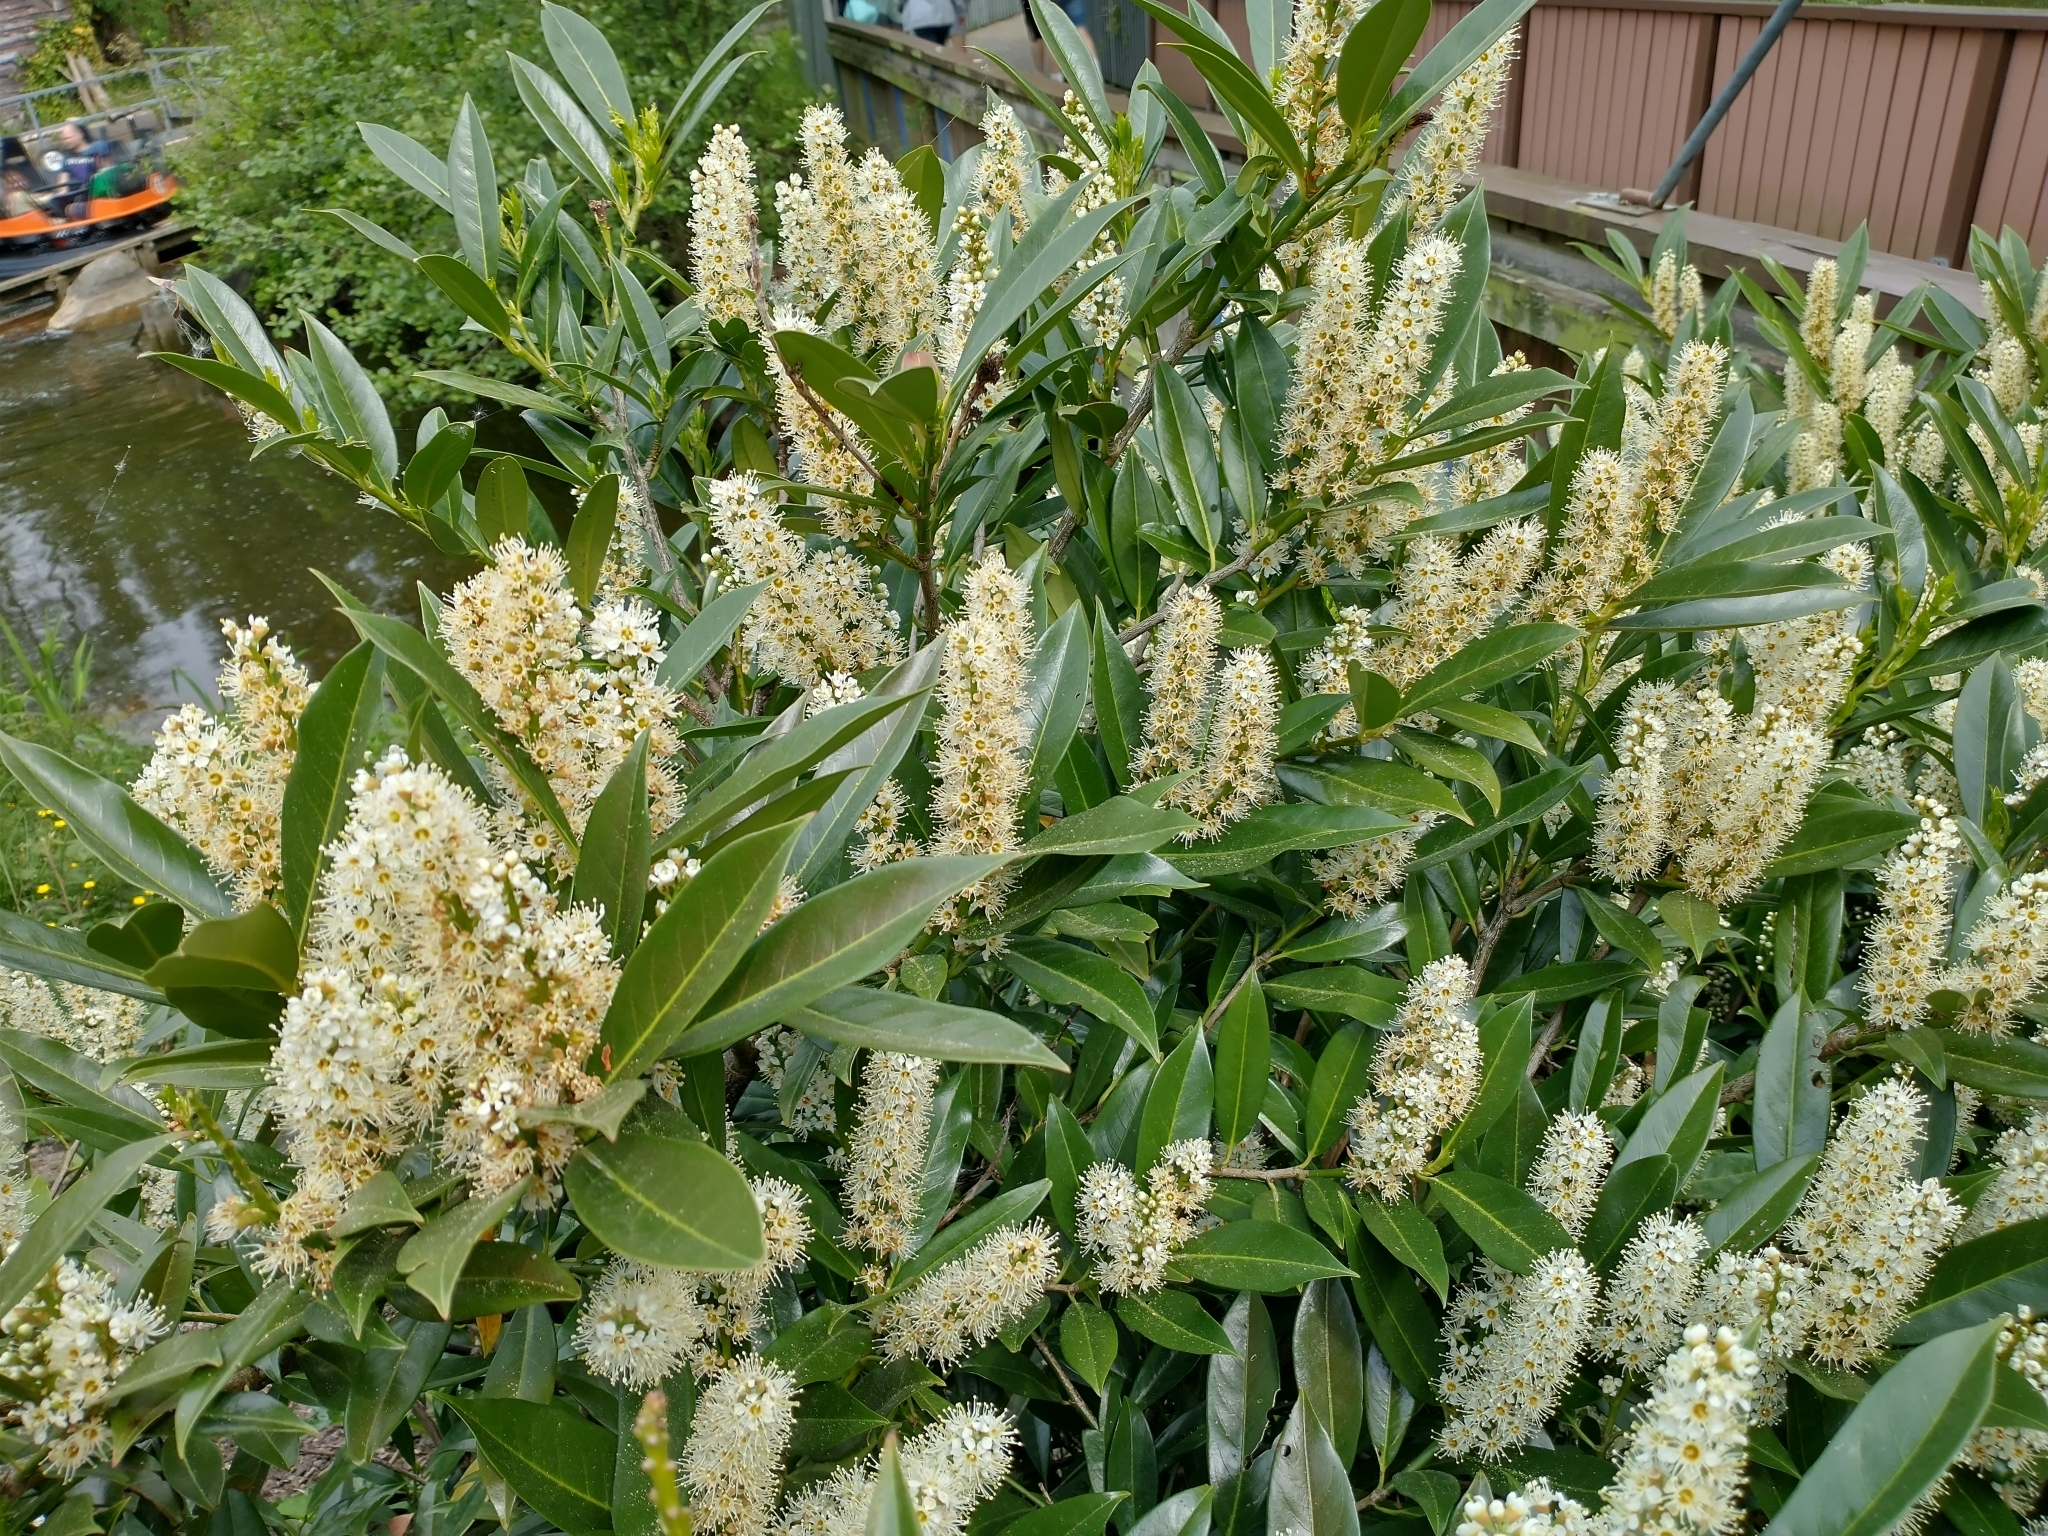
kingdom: Plantae
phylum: Tracheophyta
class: Magnoliopsida
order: Rosales
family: Rosaceae
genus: Prunus
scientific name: Prunus laurocerasus
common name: Cherry laurel
